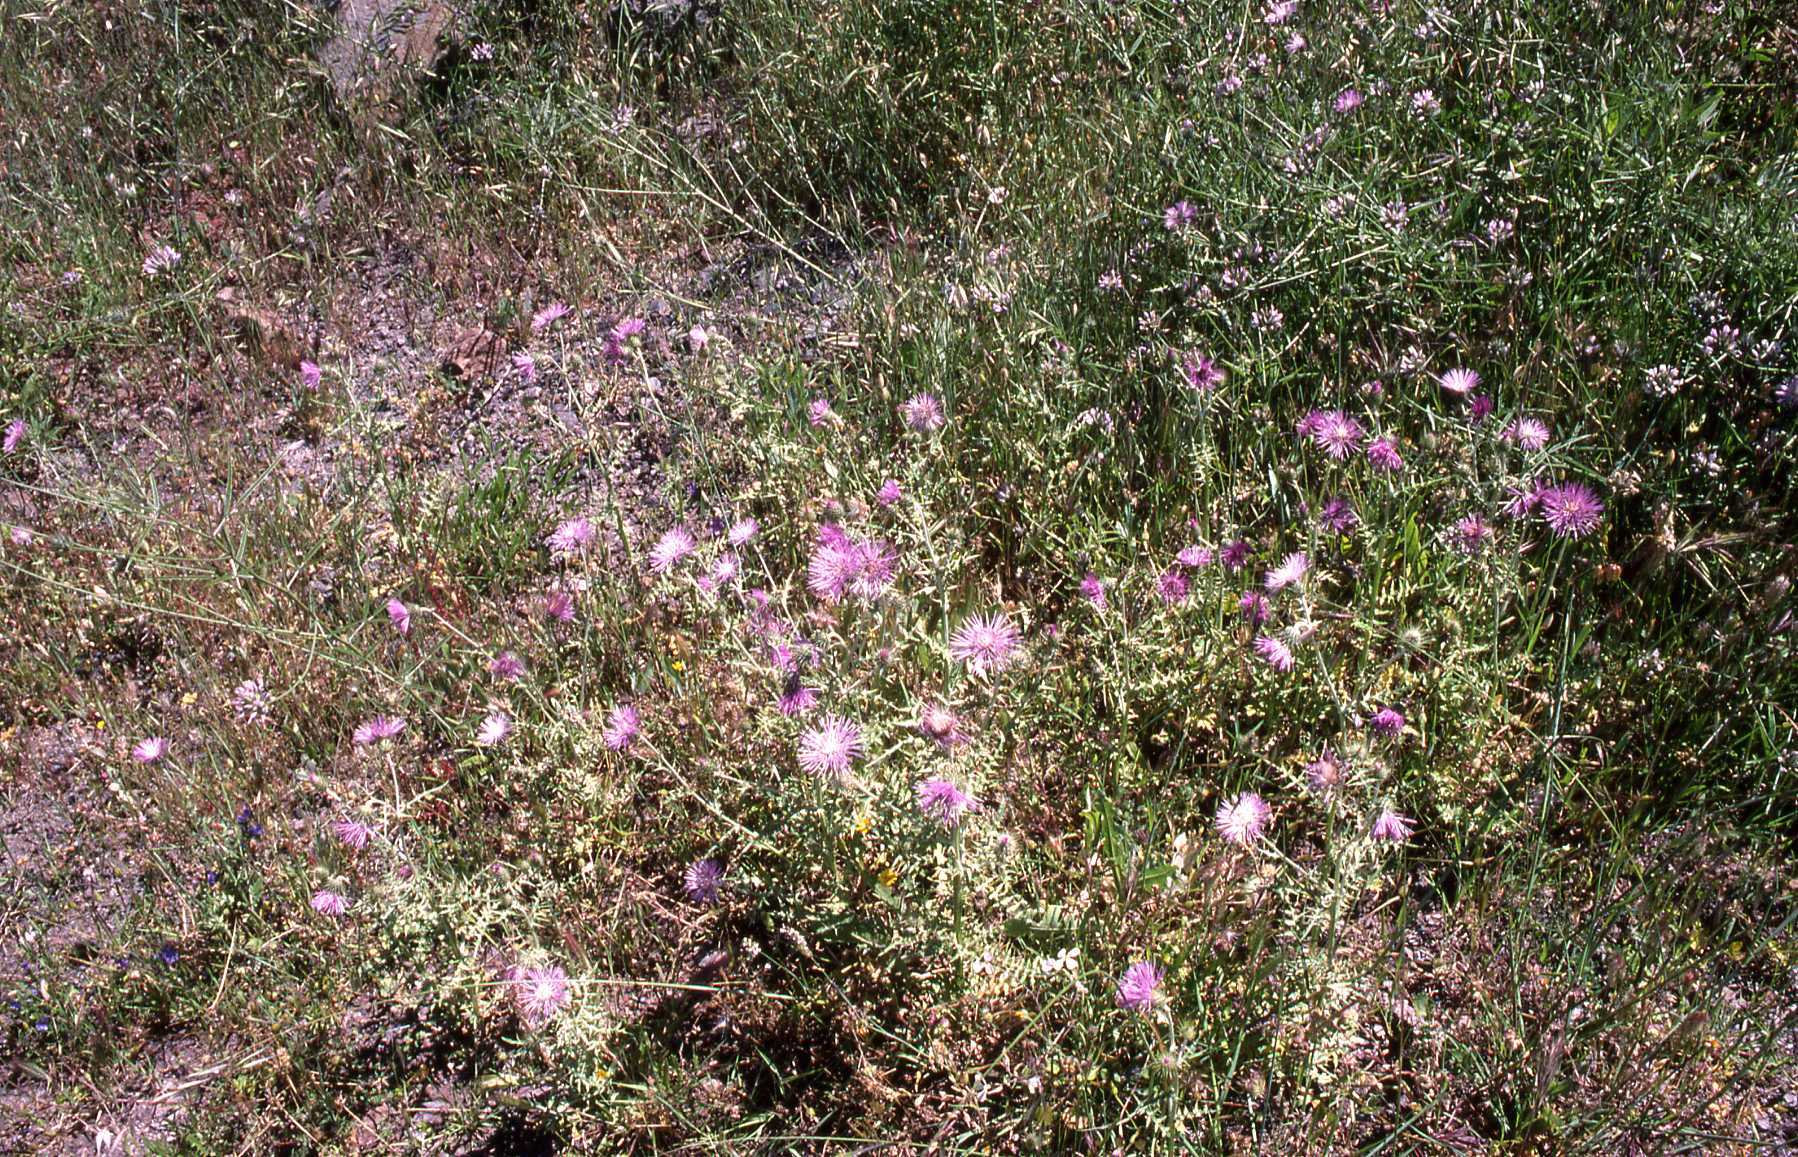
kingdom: Plantae
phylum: Tracheophyta
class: Magnoliopsida
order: Asterales
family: Asteraceae
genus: Galactites
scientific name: Galactites tomentosa
